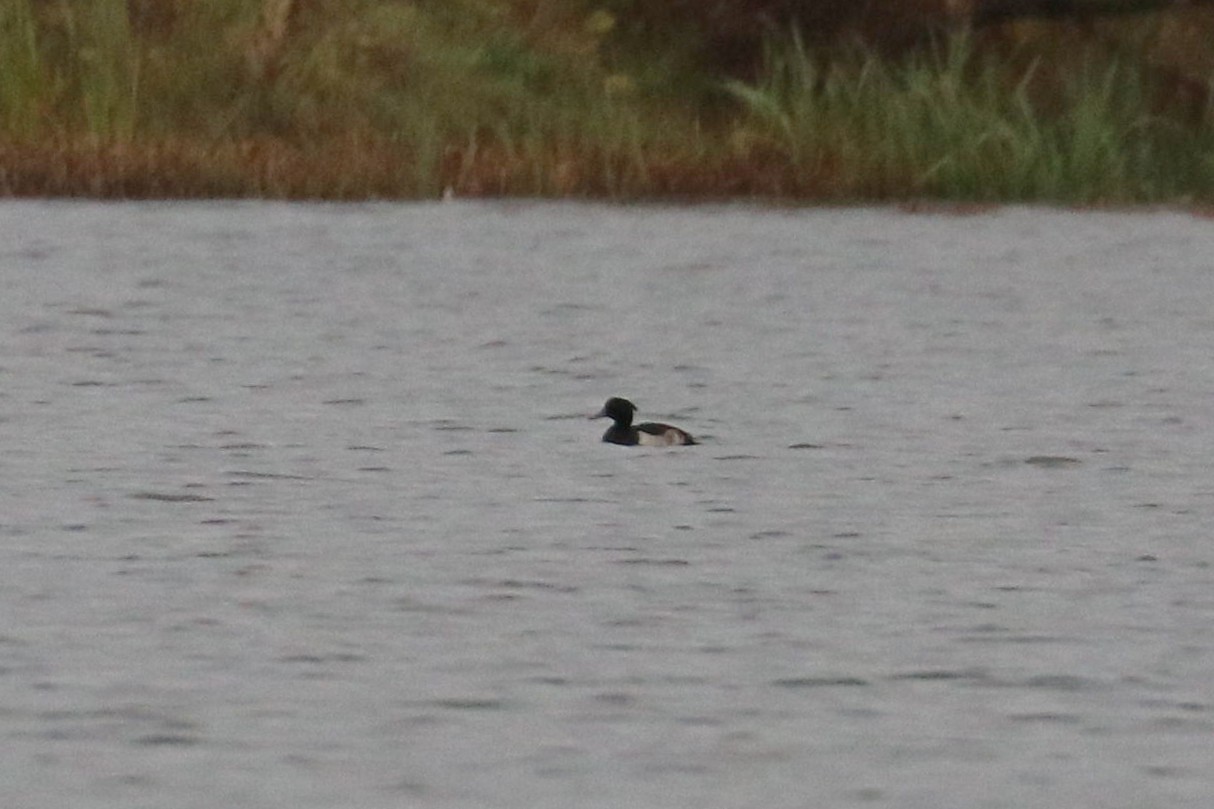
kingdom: Animalia
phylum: Chordata
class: Aves
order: Anseriformes
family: Anatidae
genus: Aythya
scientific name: Aythya fuligula
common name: Tufted duck
